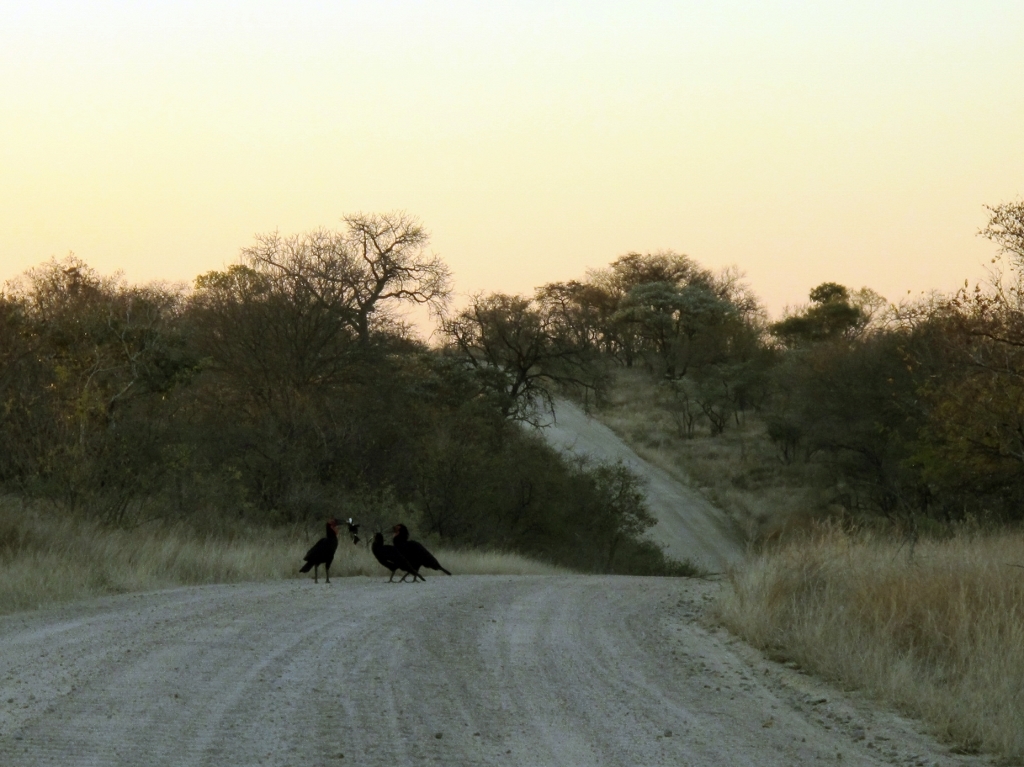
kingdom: Animalia
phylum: Chordata
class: Aves
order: Bucerotiformes
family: Bucorvidae
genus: Bucorvus
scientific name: Bucorvus leadbeateri
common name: Southern ground-hornbill
